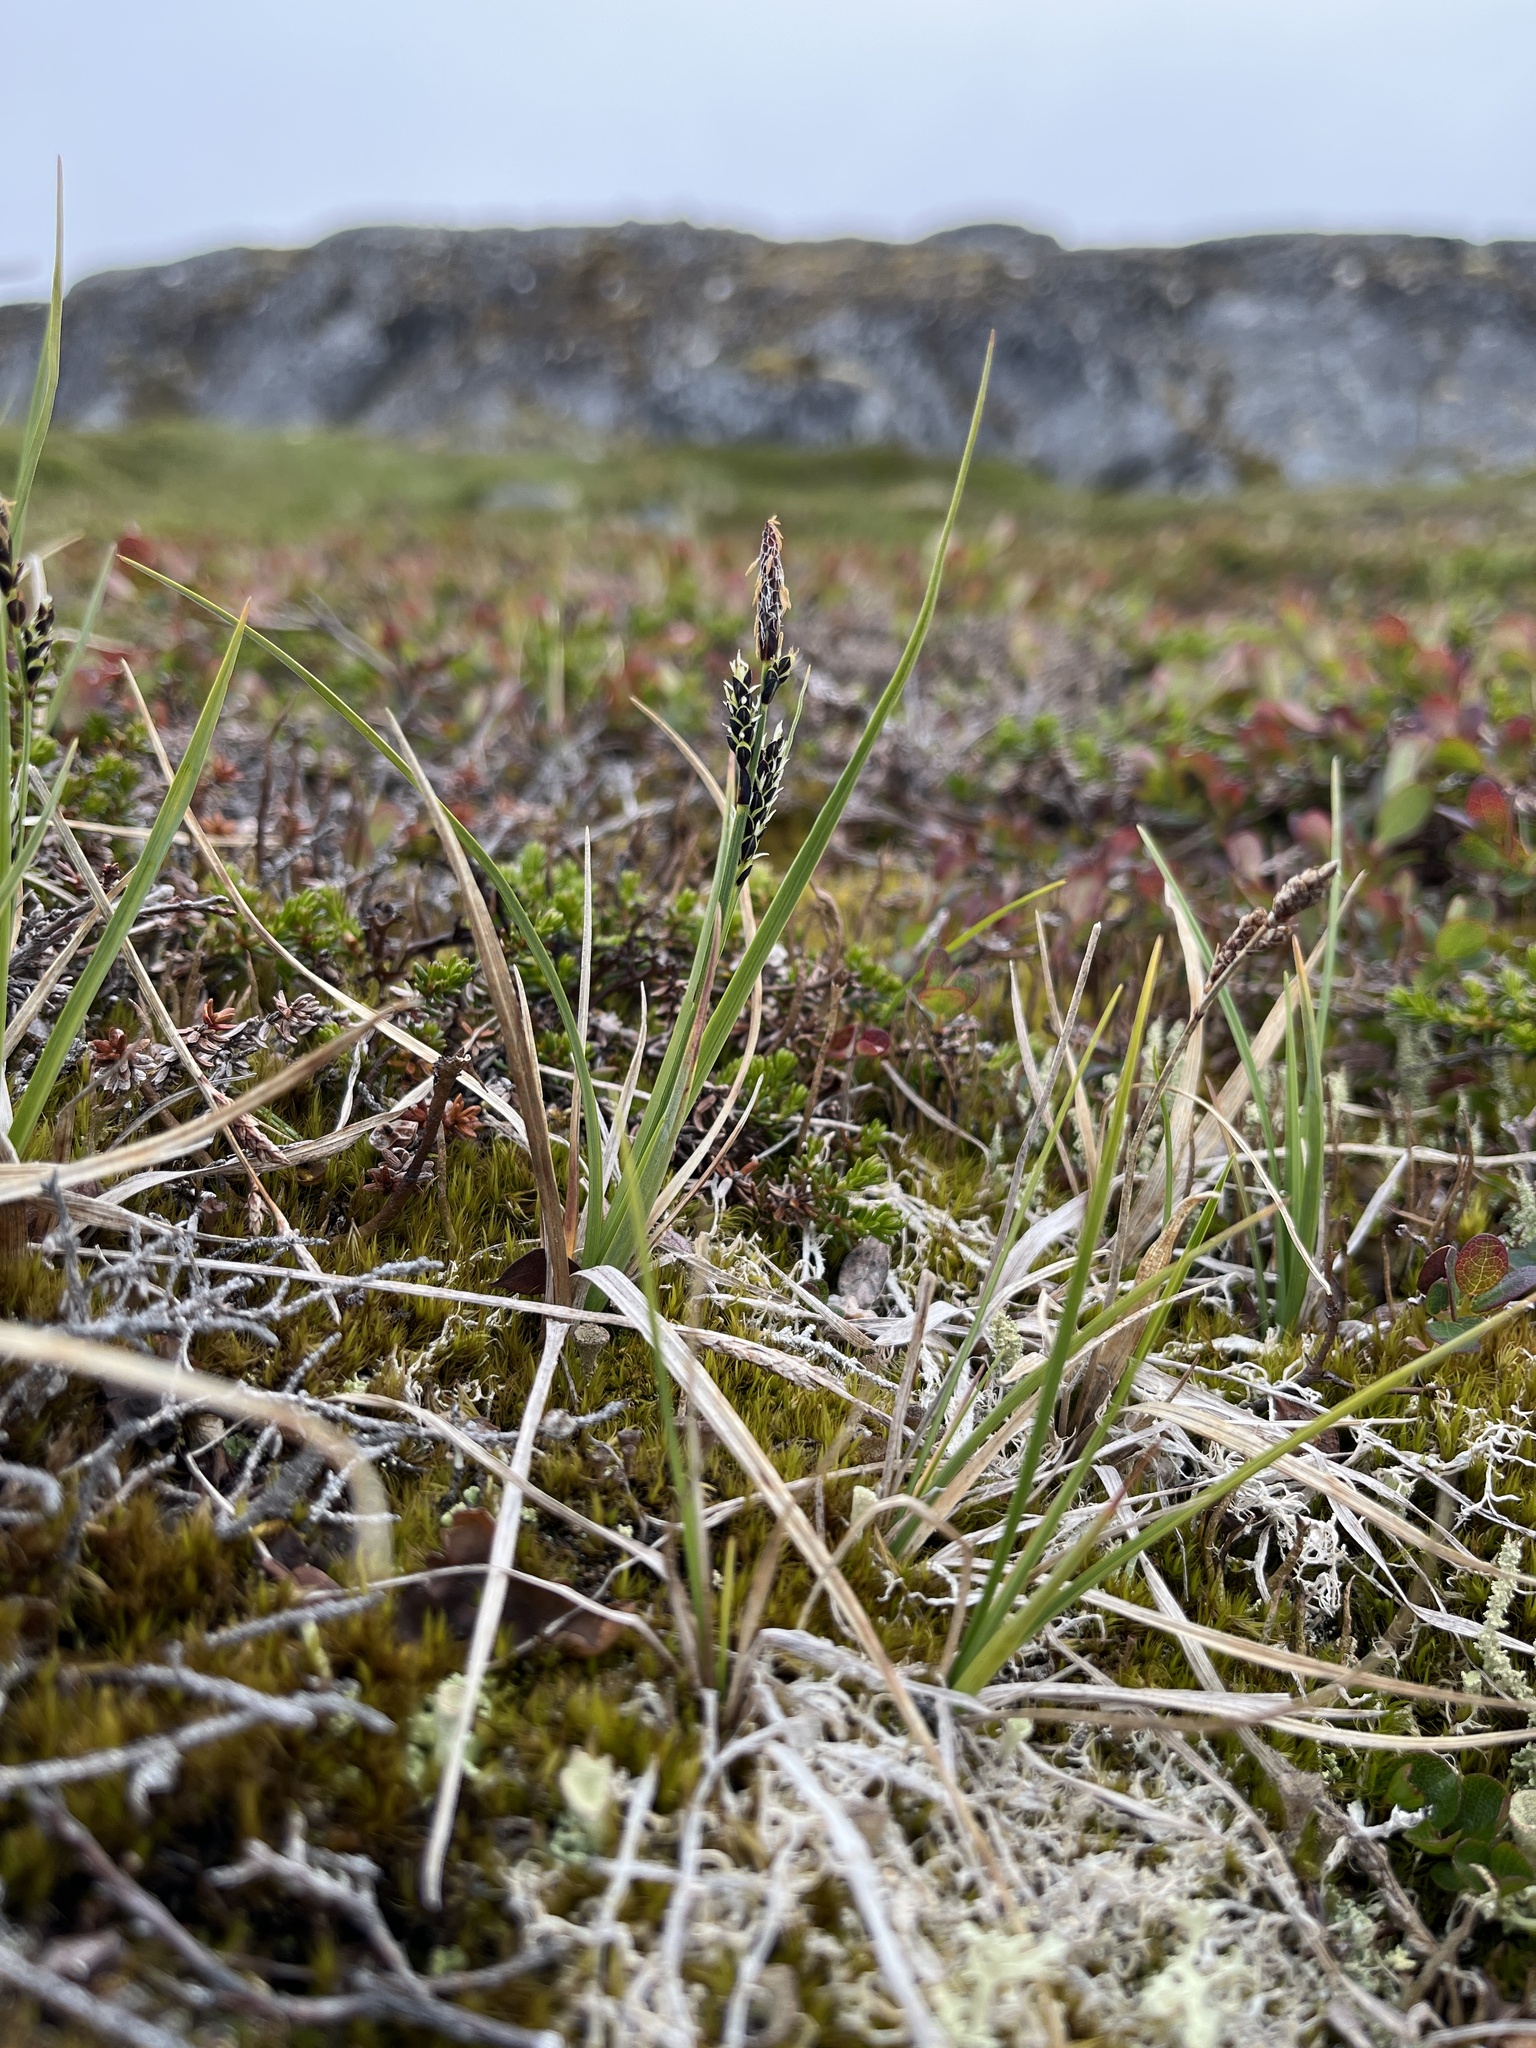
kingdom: Plantae
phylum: Tracheophyta
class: Liliopsida
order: Poales
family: Cyperaceae
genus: Carex
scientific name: Carex bigelowii
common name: Stiff sedge
